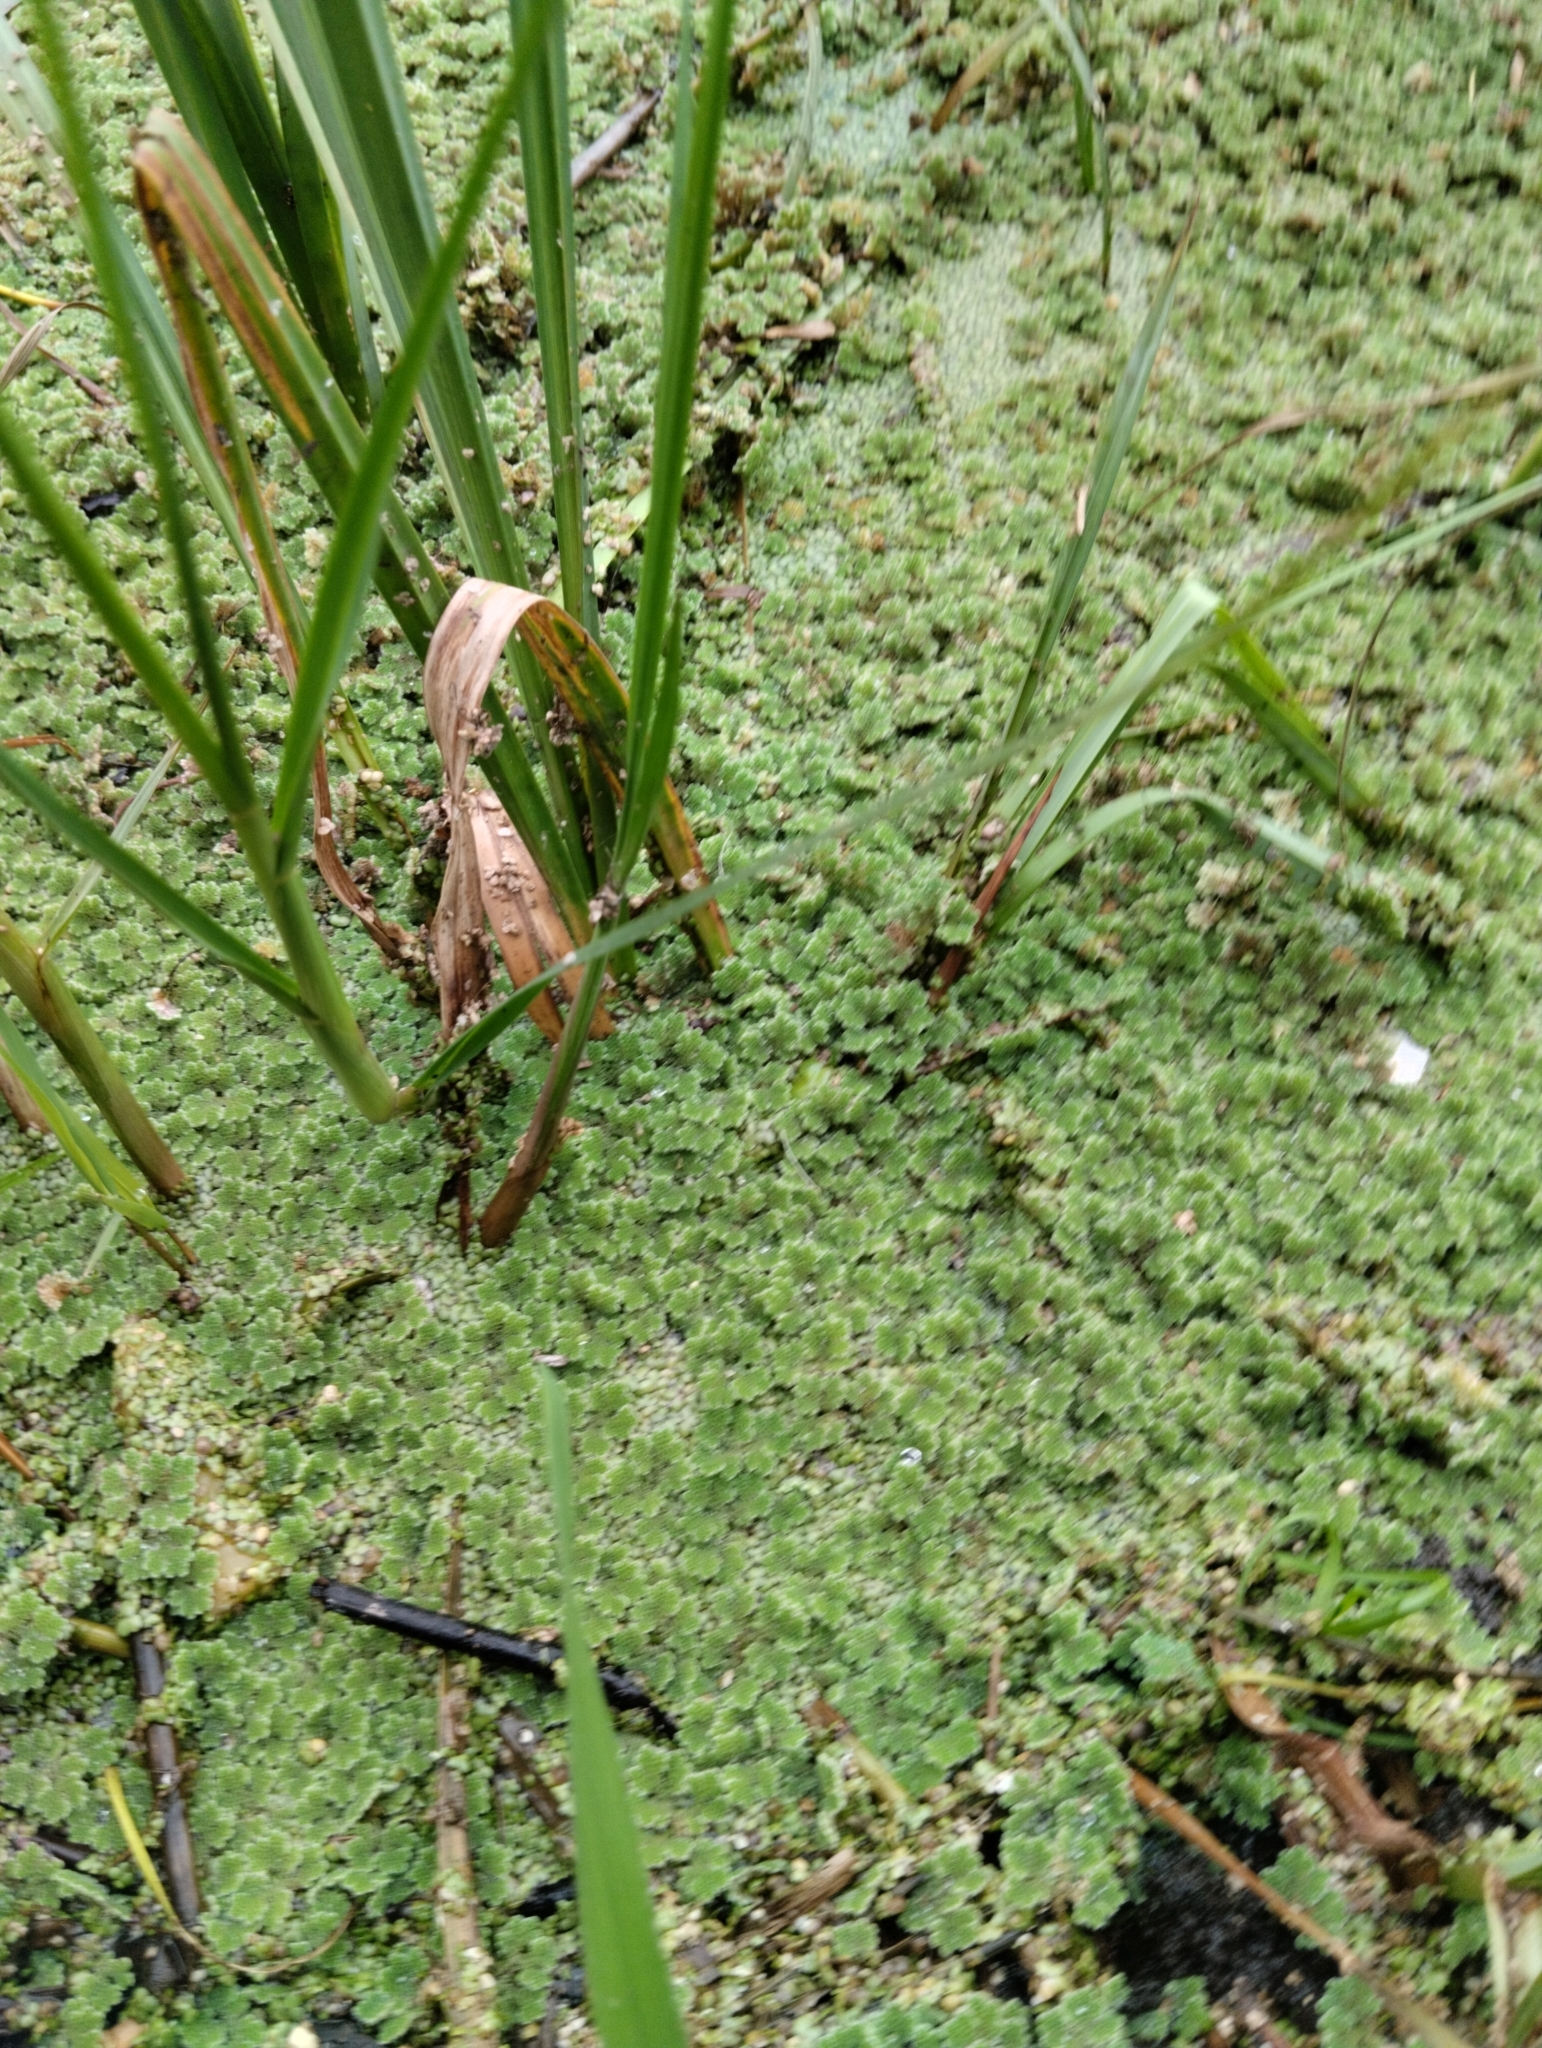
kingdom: Plantae
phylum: Tracheophyta
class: Polypodiopsida
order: Salviniales
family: Salviniaceae
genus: Azolla
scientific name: Azolla filiculoides
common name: Water fern
